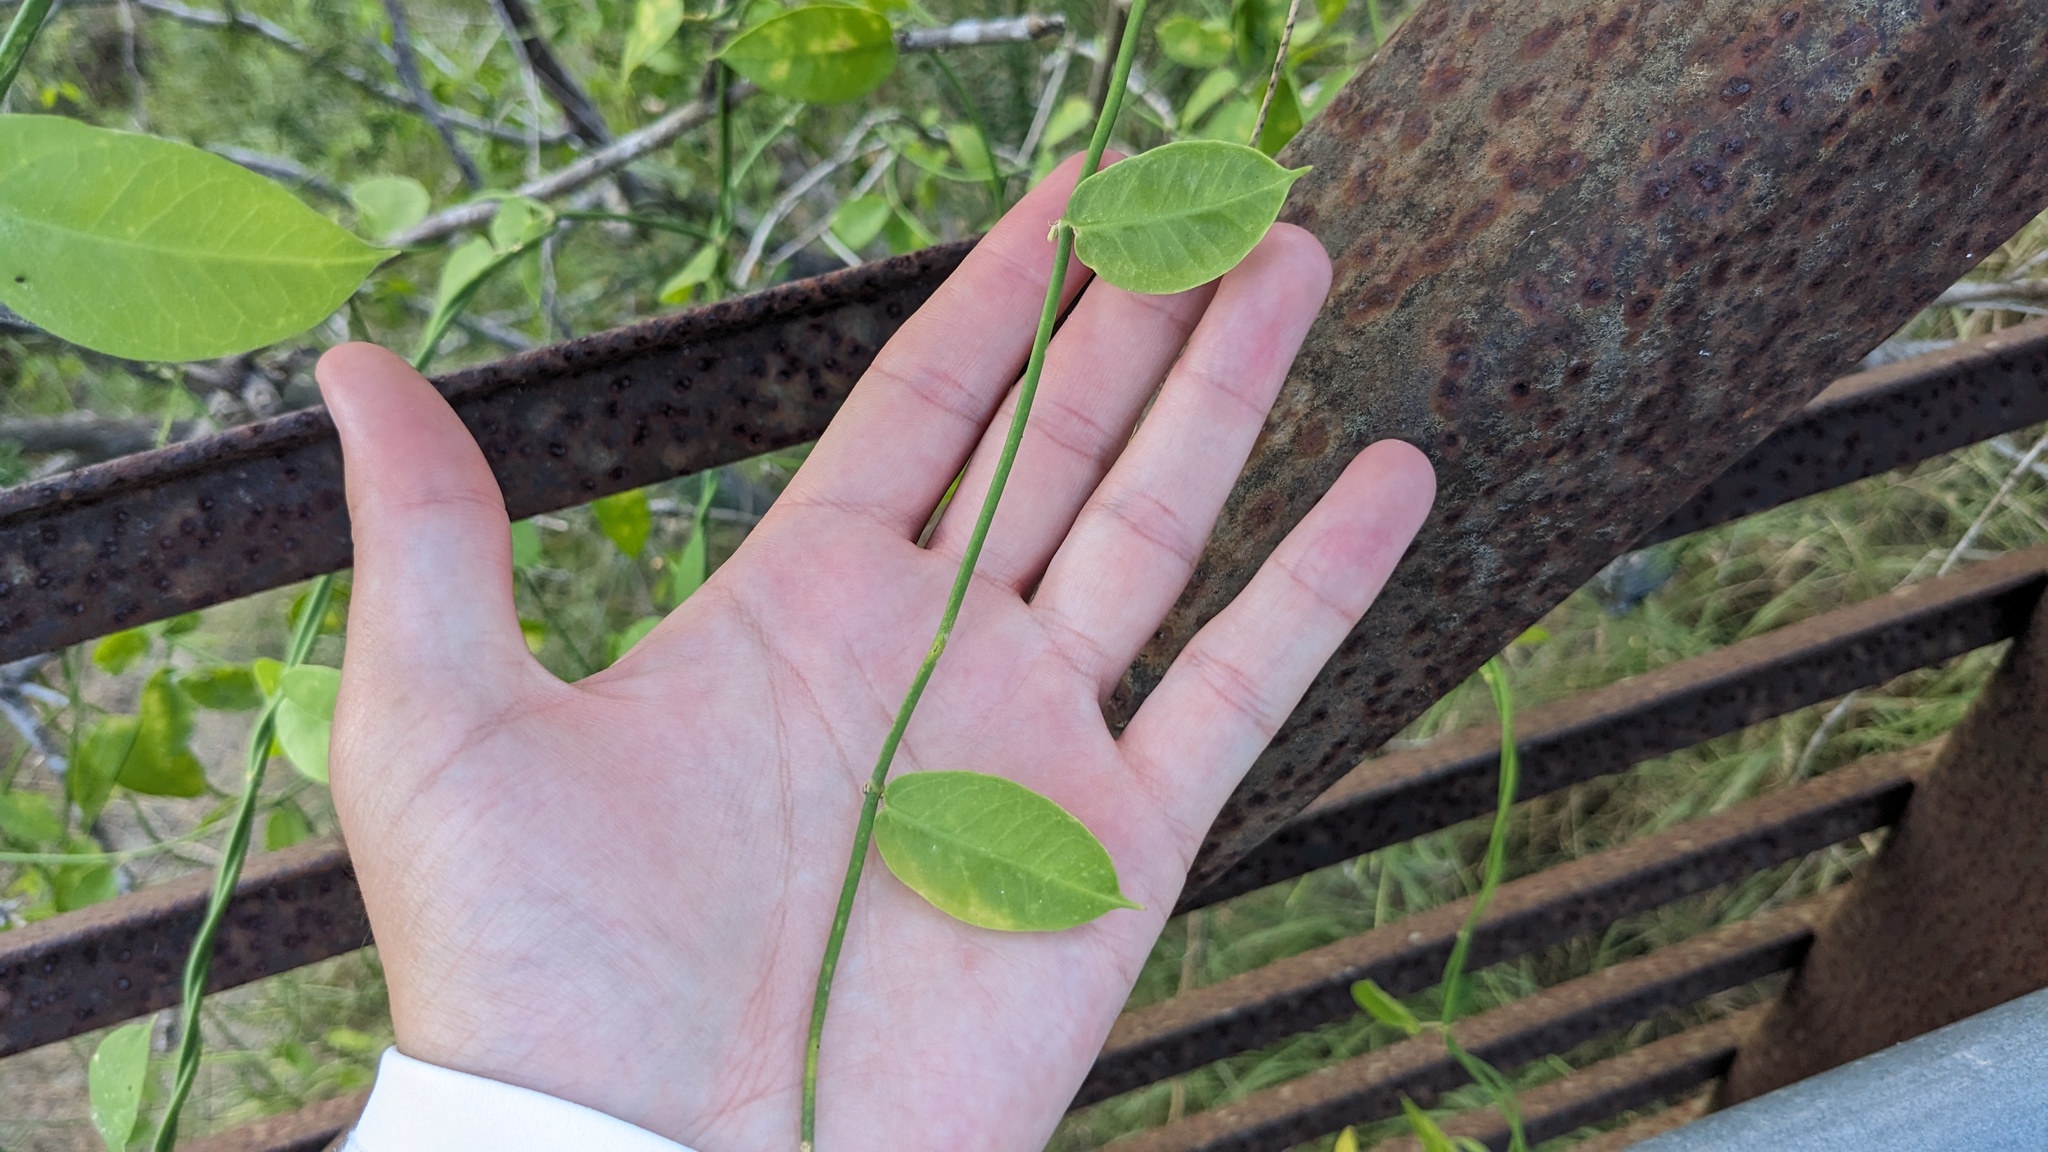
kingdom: Plantae
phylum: Tracheophyta
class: Magnoliopsida
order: Gentianales
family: Apocynaceae
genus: Funastrum
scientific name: Funastrum clausum
